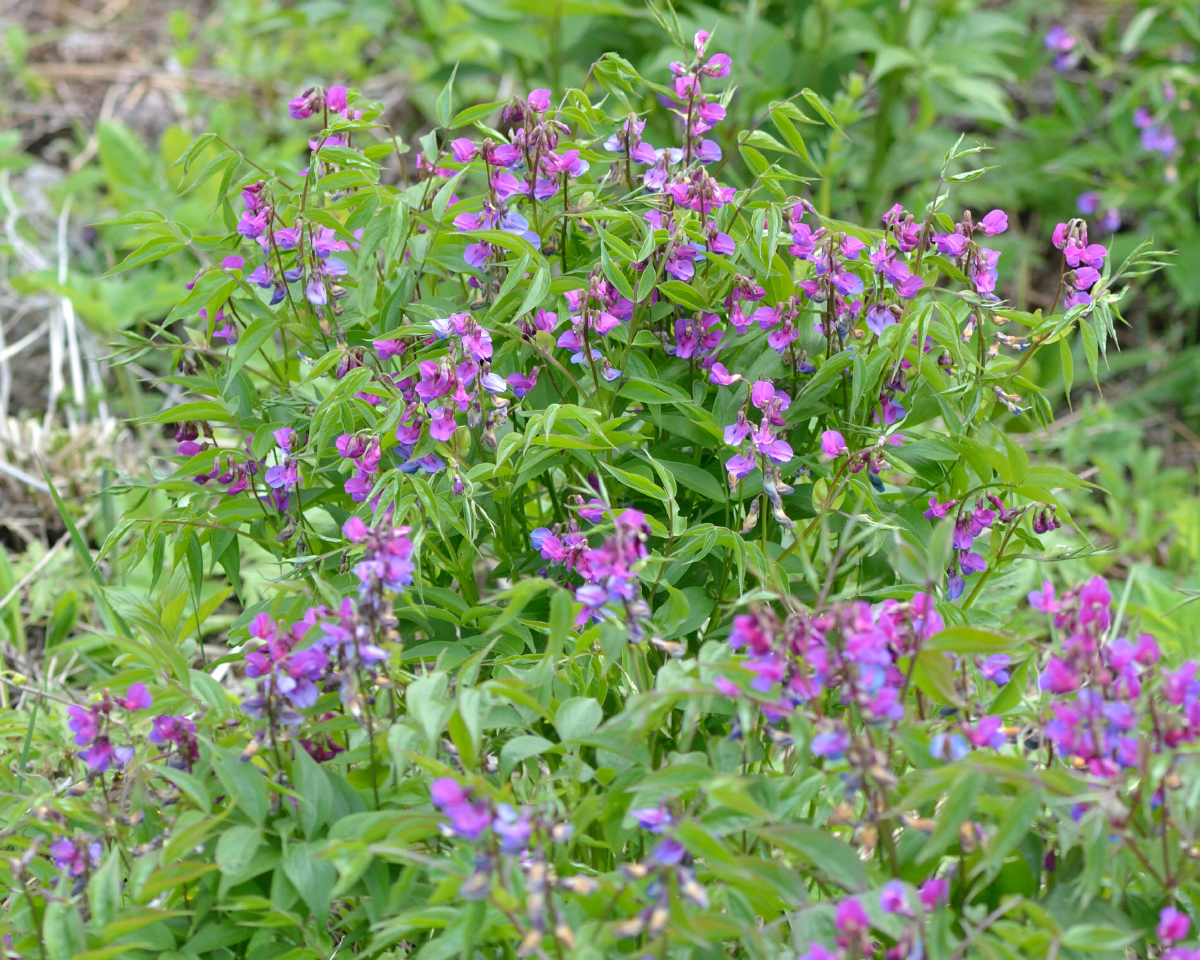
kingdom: Plantae
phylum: Tracheophyta
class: Magnoliopsida
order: Fabales
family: Fabaceae
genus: Lathyrus
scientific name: Lathyrus vernus
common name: Spring pea
